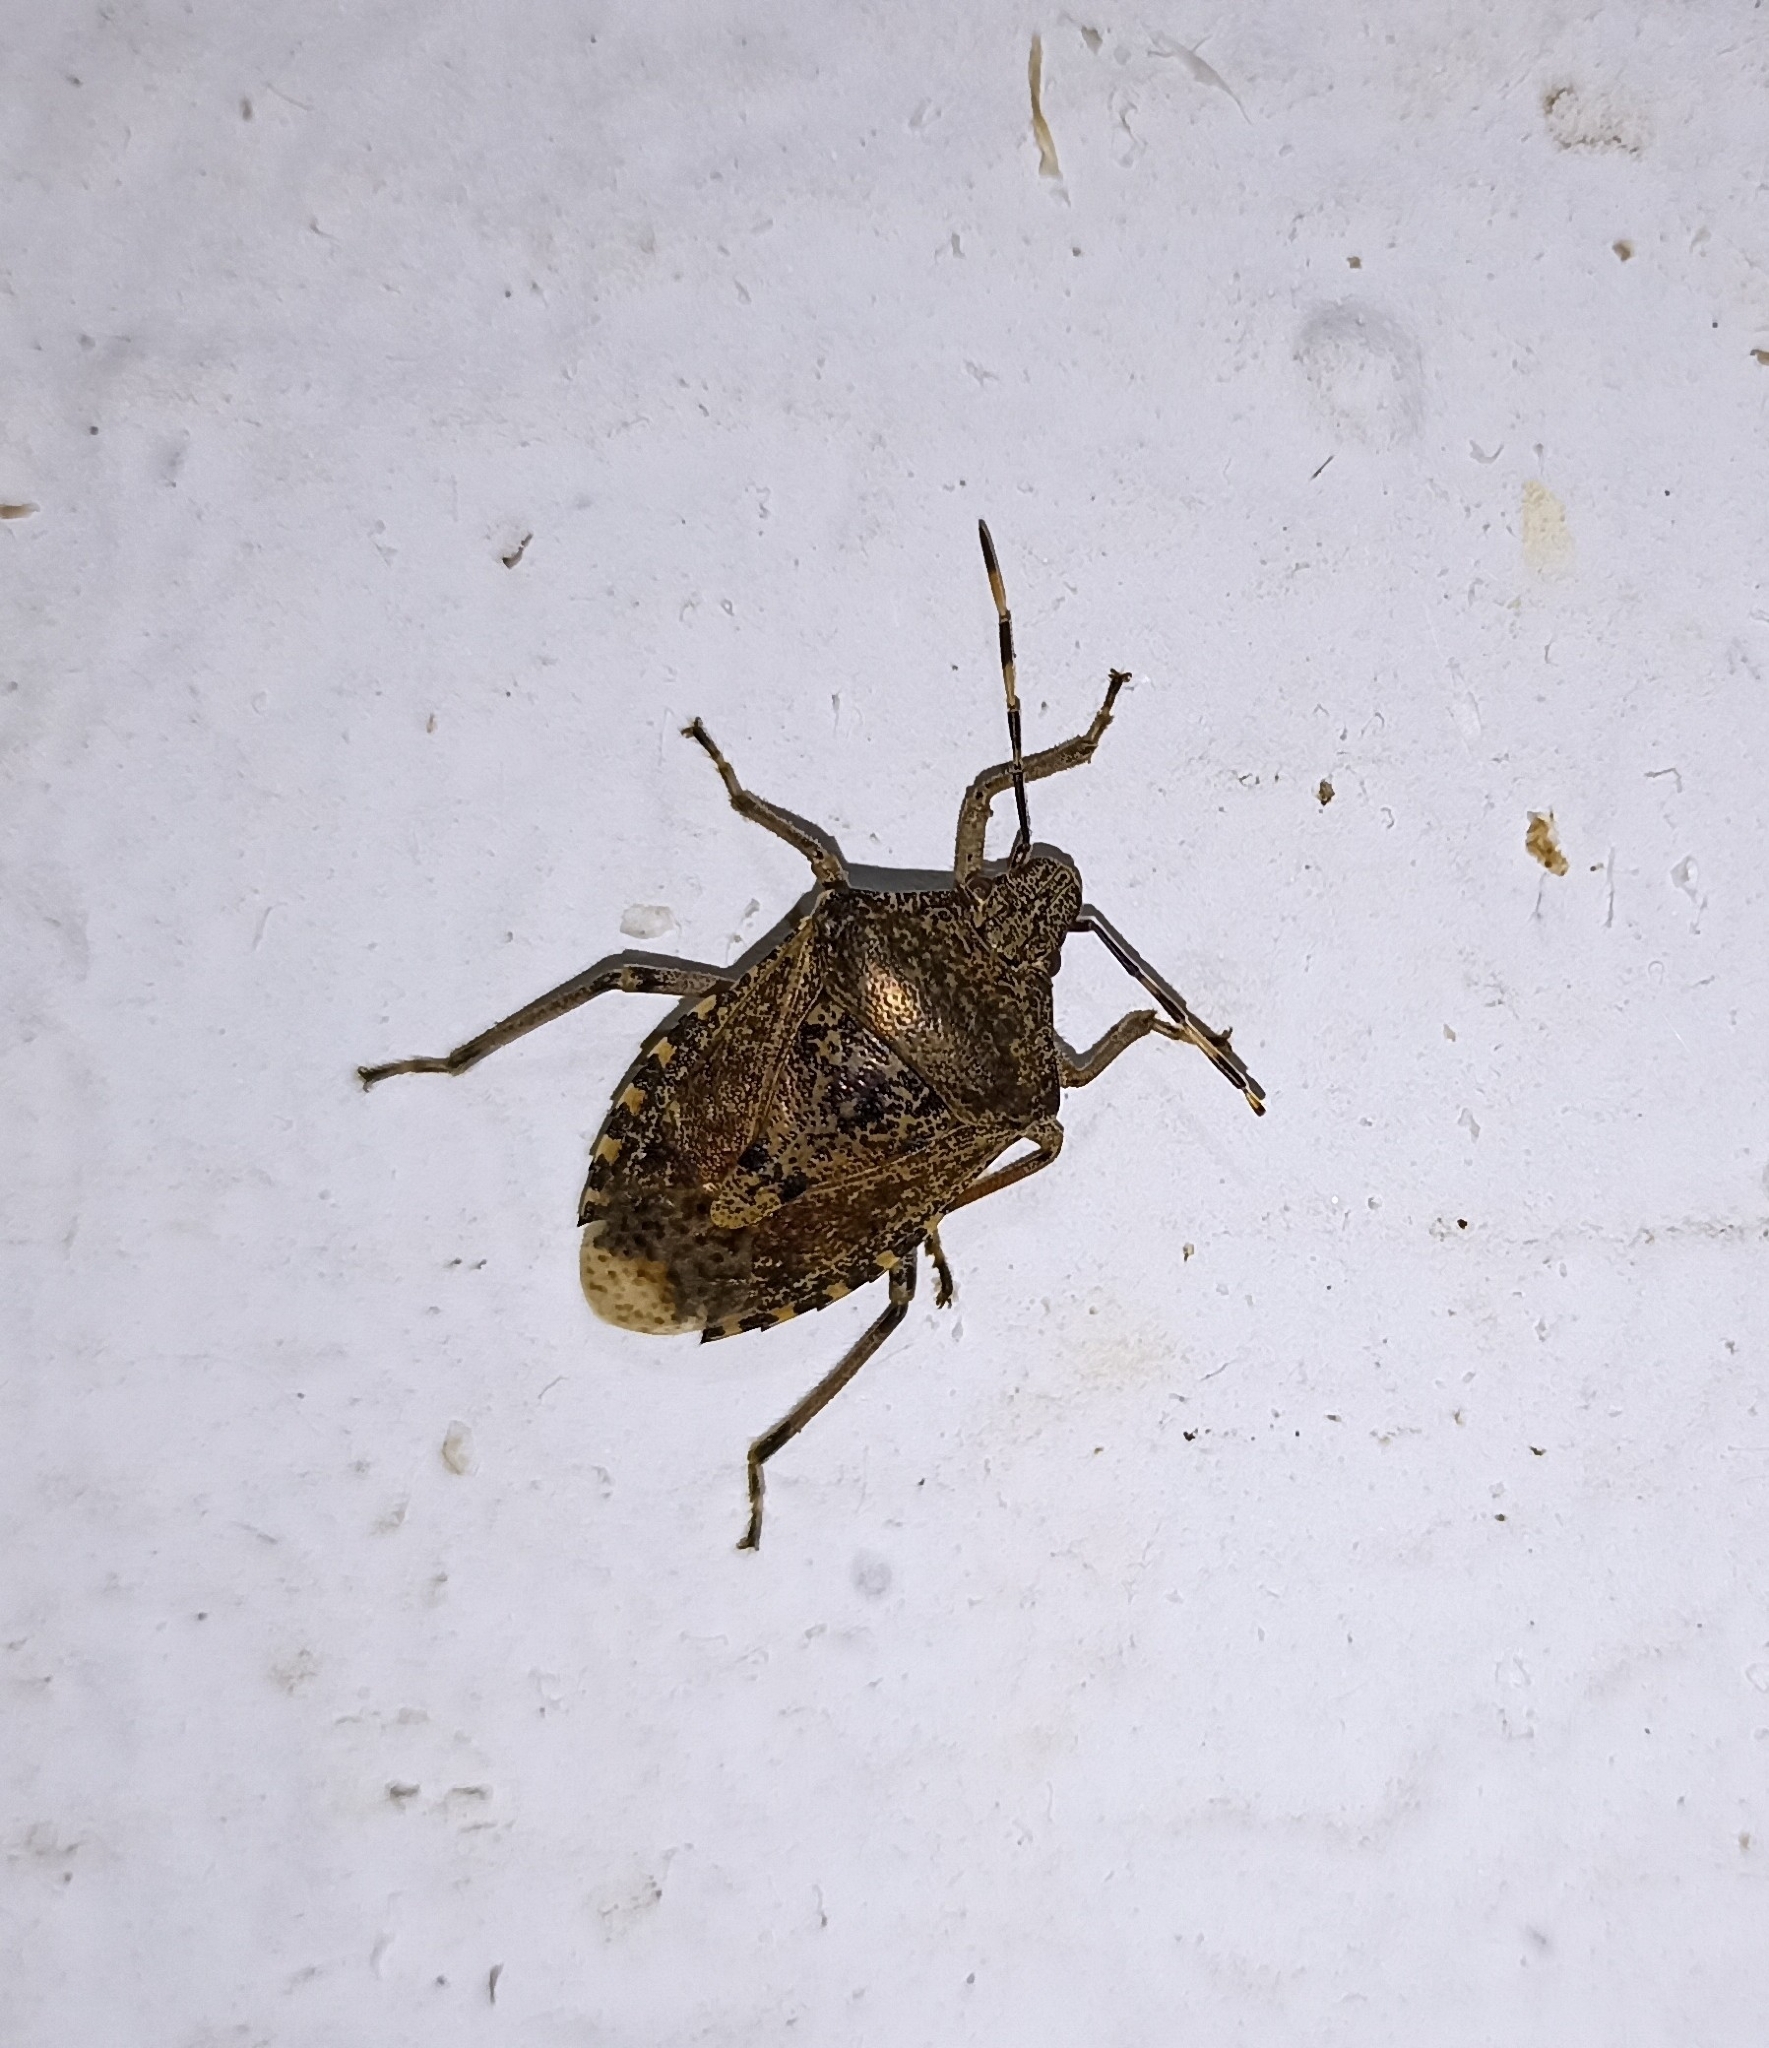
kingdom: Animalia
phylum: Arthropoda
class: Insecta
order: Hemiptera
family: Pentatomidae
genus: Rhaphigaster
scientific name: Rhaphigaster nebulosa
